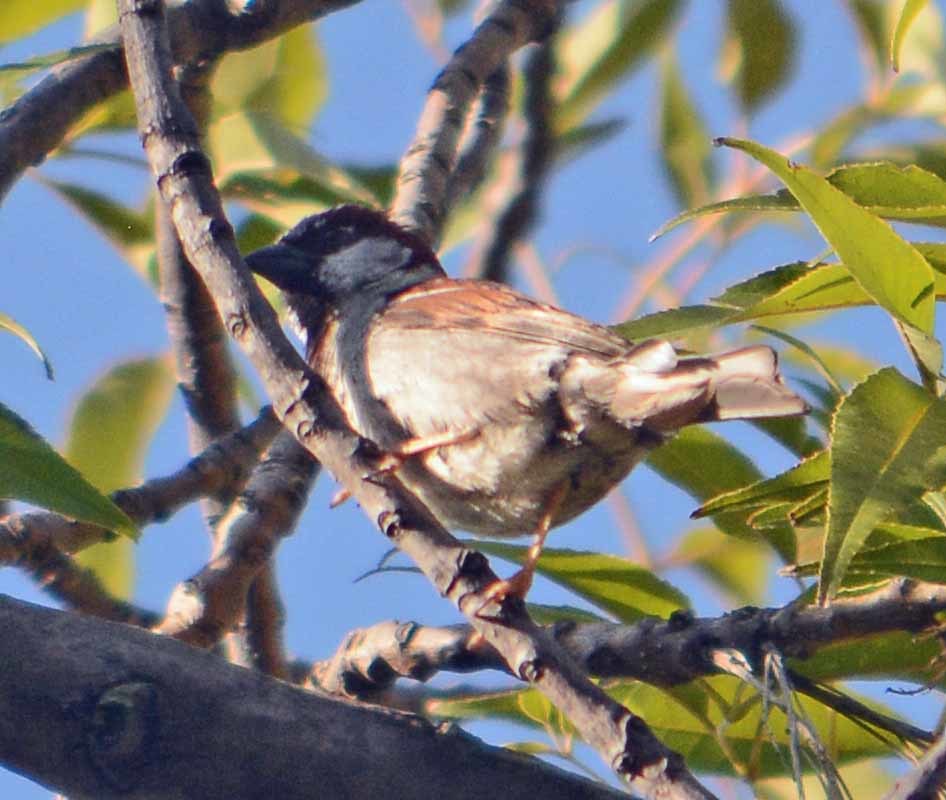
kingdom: Animalia
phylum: Chordata
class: Aves
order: Passeriformes
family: Passeridae
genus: Passer
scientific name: Passer domesticus
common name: House sparrow
